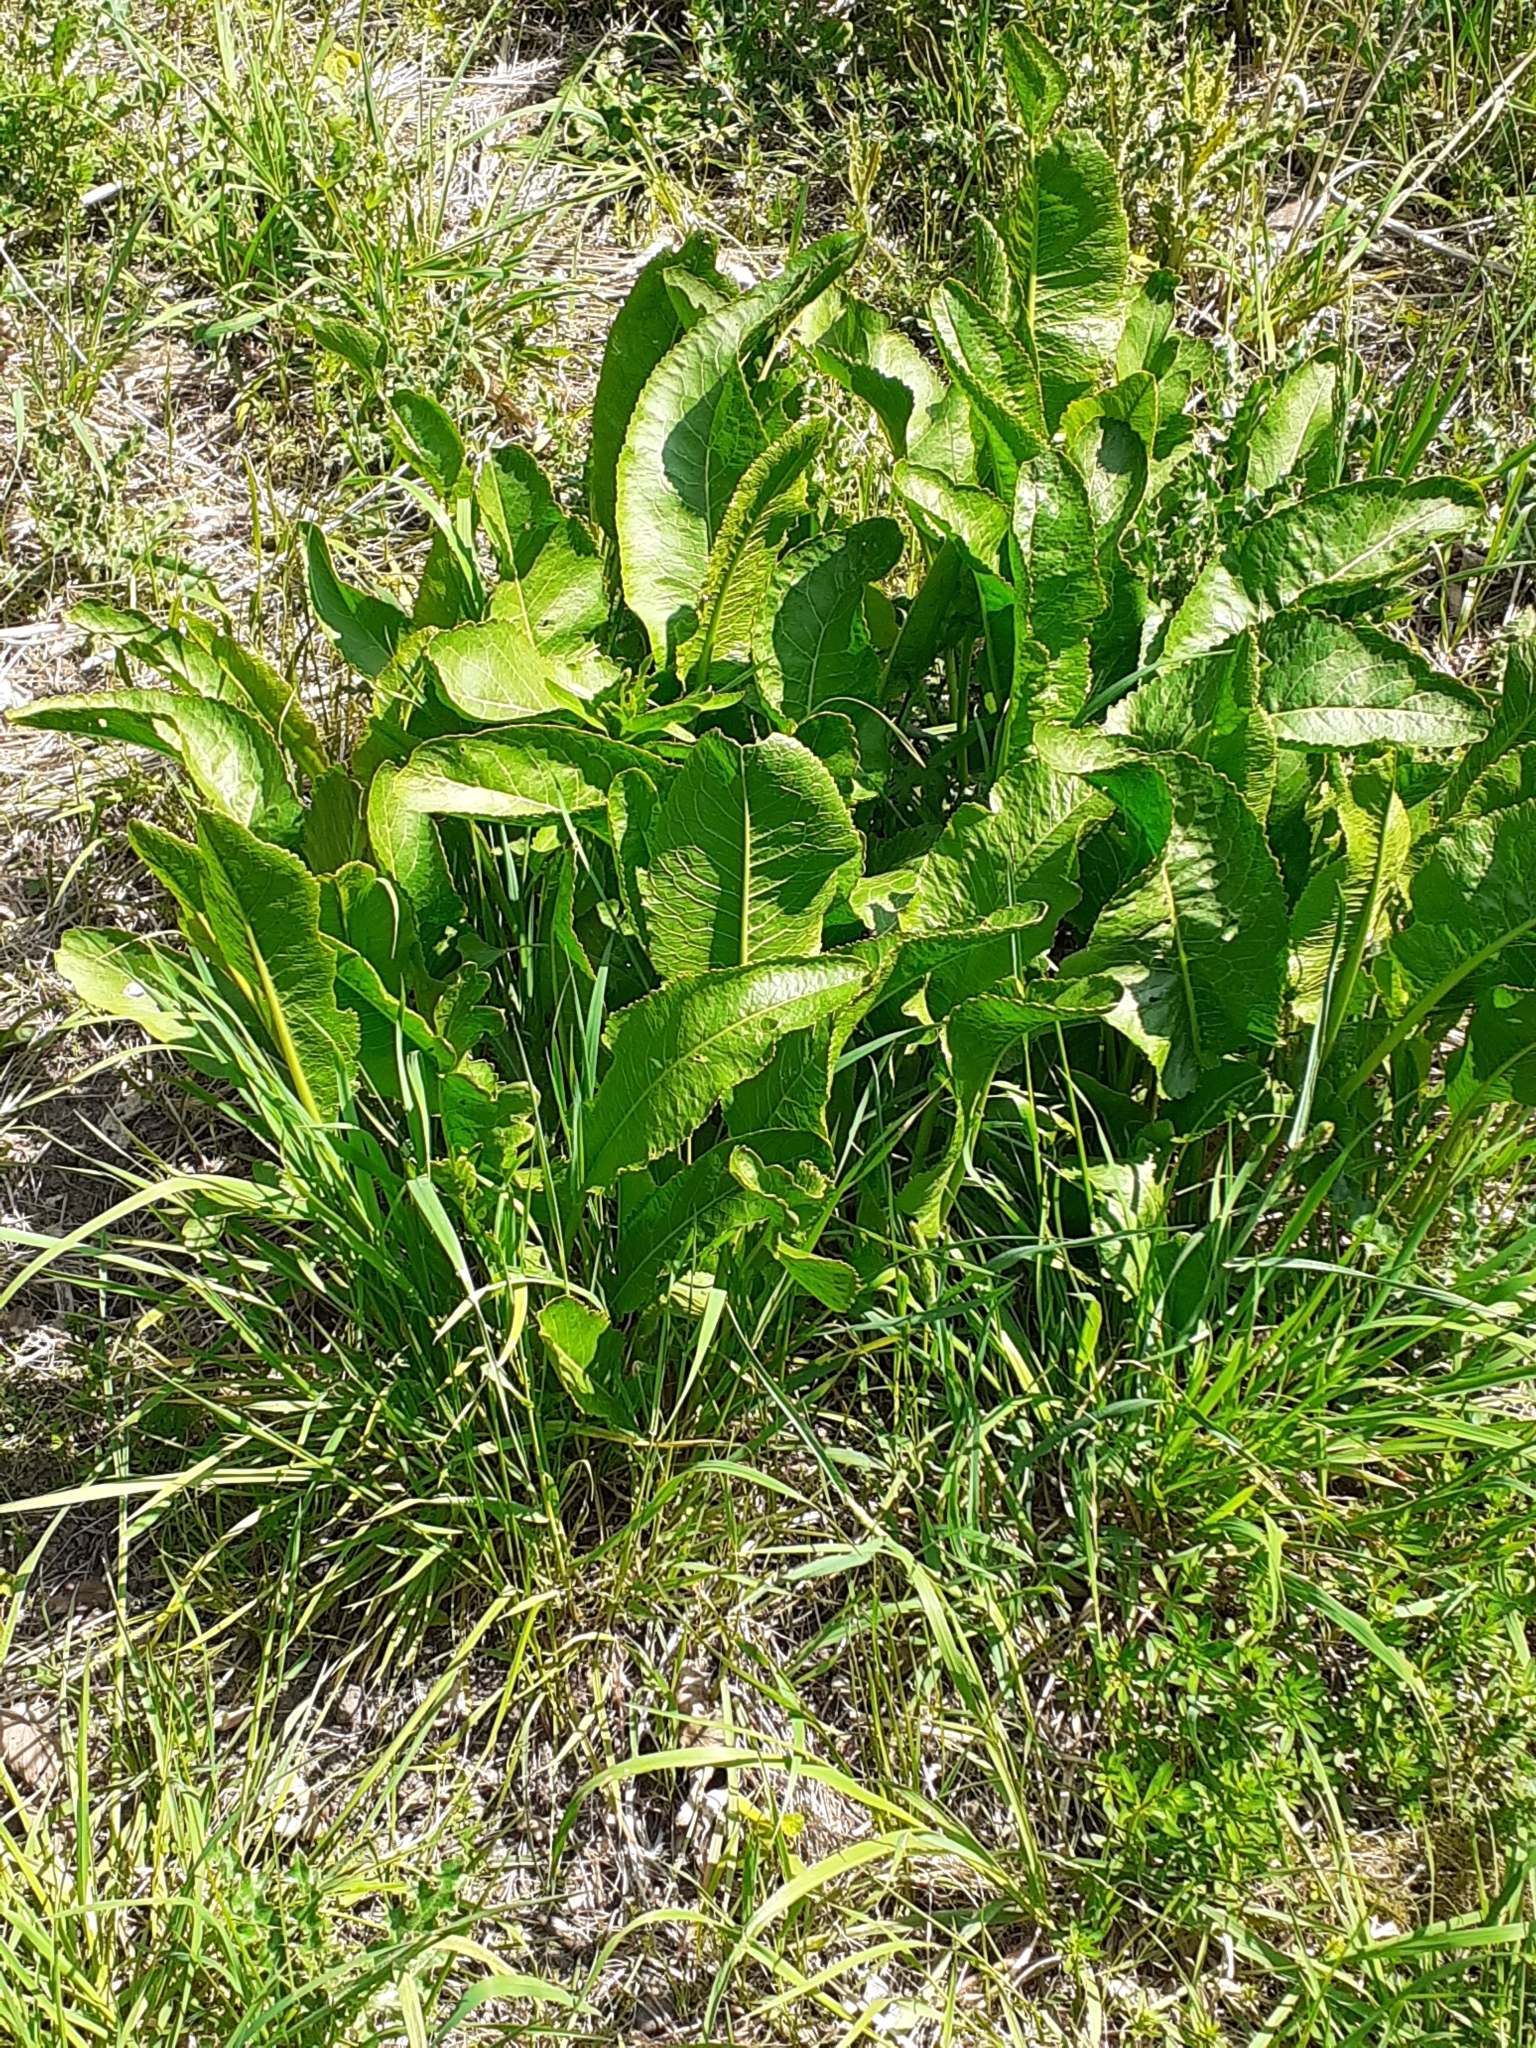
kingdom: Plantae
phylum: Tracheophyta
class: Magnoliopsida
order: Brassicales
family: Brassicaceae
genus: Armoracia
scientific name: Armoracia rusticana
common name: Horseradish
